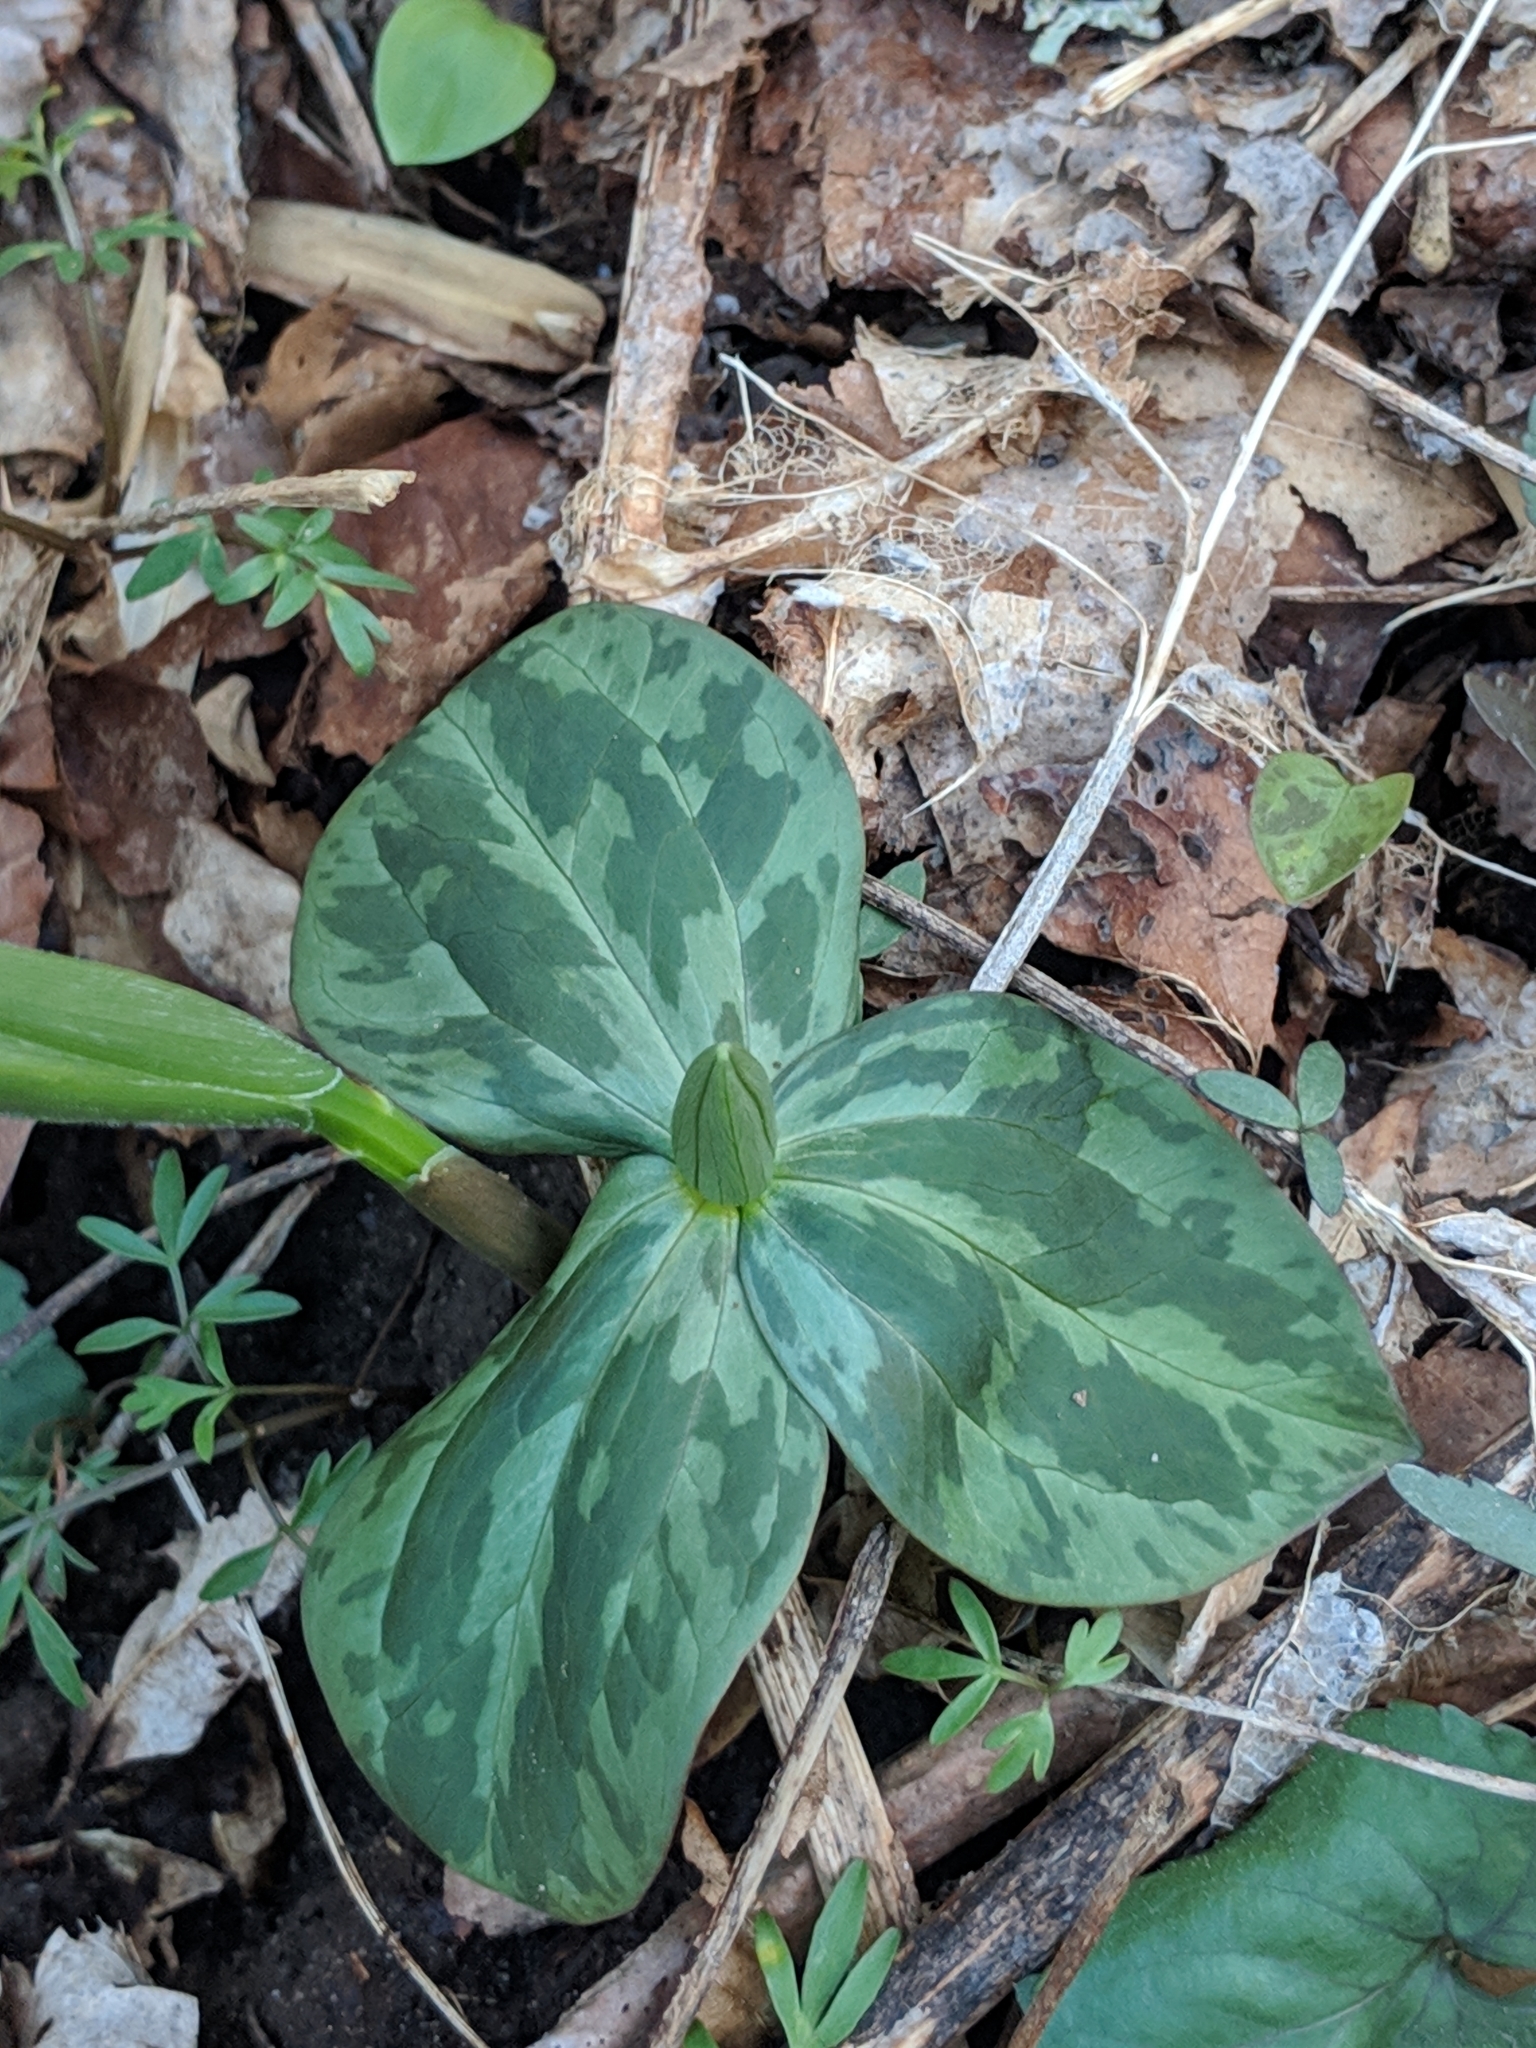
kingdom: Plantae
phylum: Tracheophyta
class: Liliopsida
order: Liliales
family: Melanthiaceae
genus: Trillium
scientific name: Trillium sessile
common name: Sessile trillium
